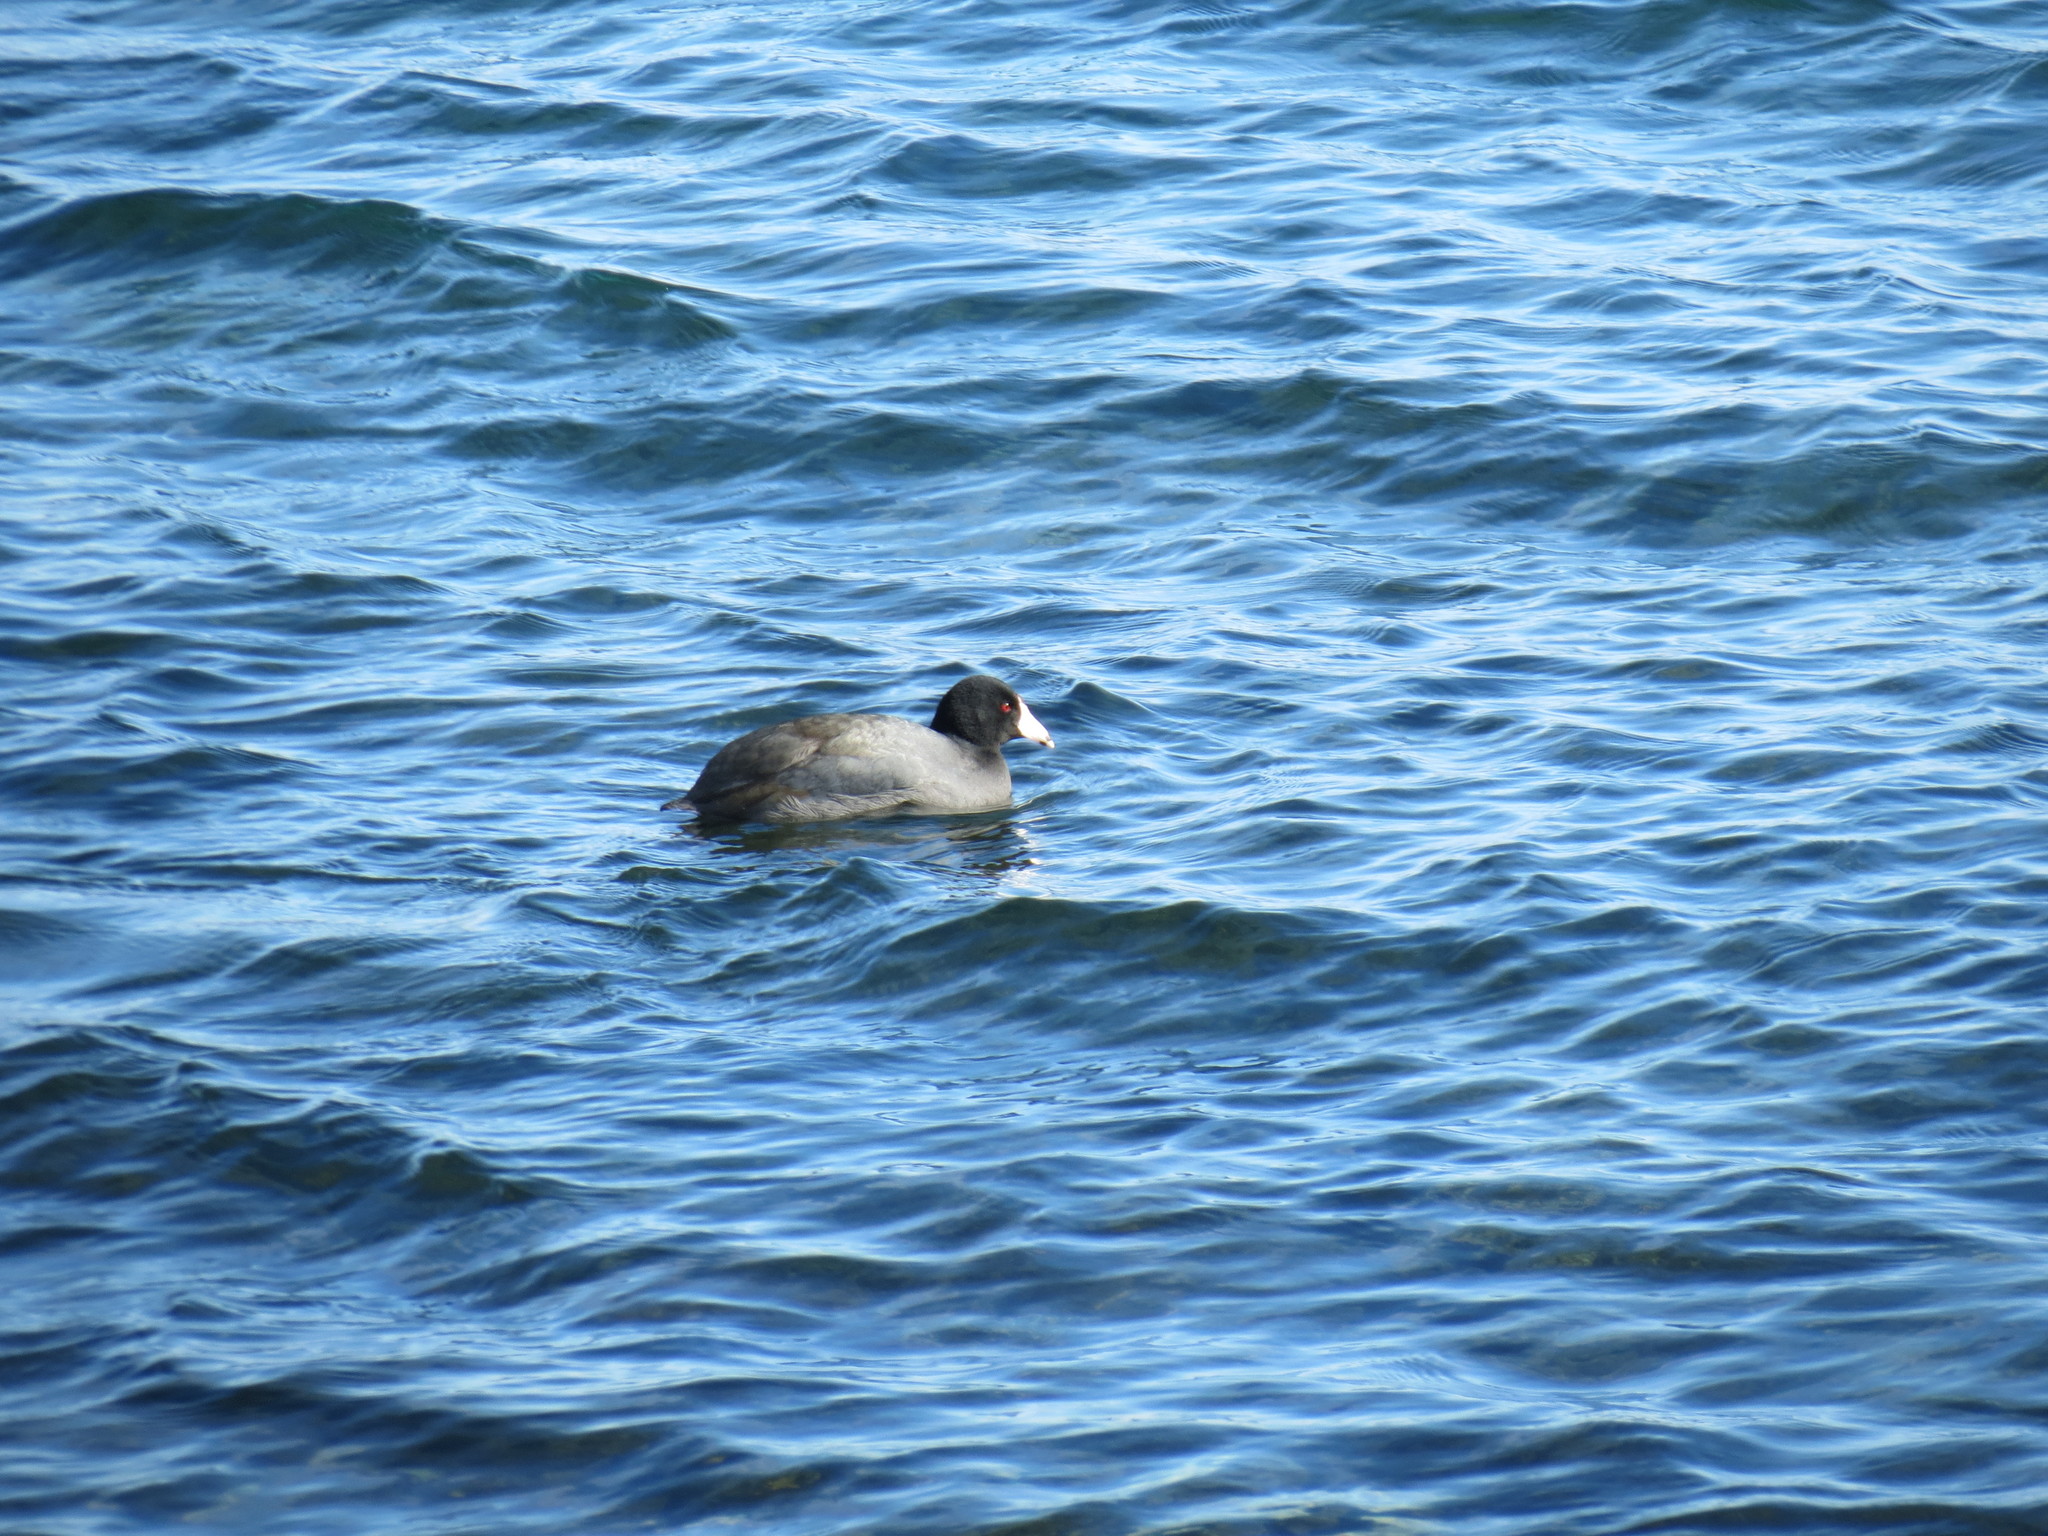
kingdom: Animalia
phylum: Chordata
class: Aves
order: Gruiformes
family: Rallidae
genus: Fulica
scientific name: Fulica americana
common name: American coot
